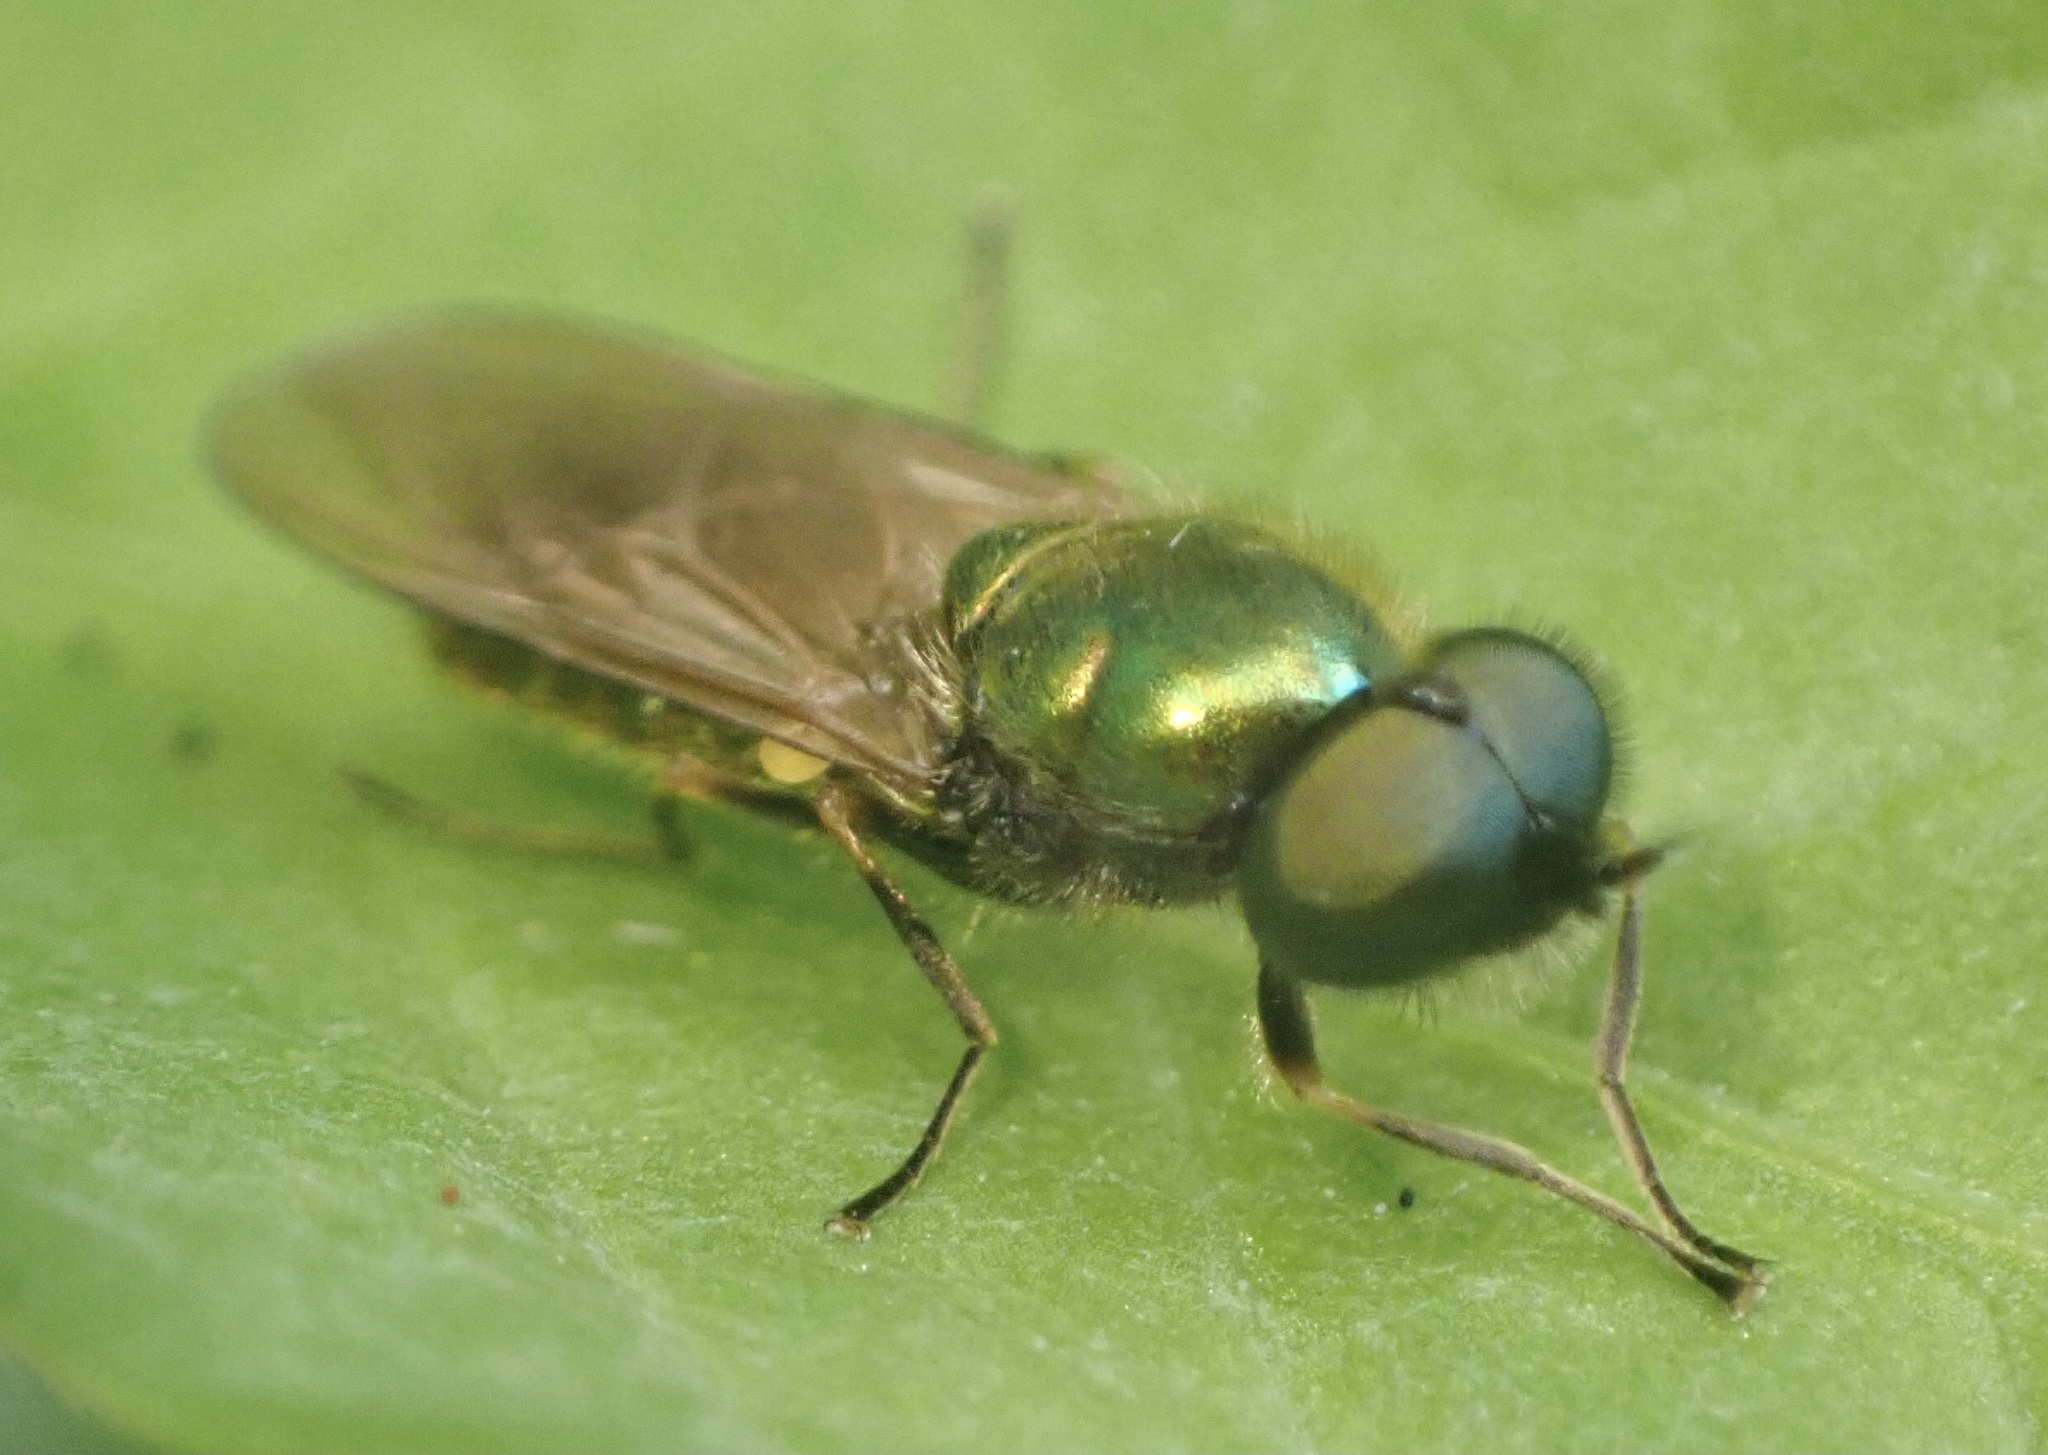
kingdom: Animalia
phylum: Arthropoda
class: Insecta
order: Diptera
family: Stratiomyidae
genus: Chloromyia
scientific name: Chloromyia formosa
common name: Soldier fly
